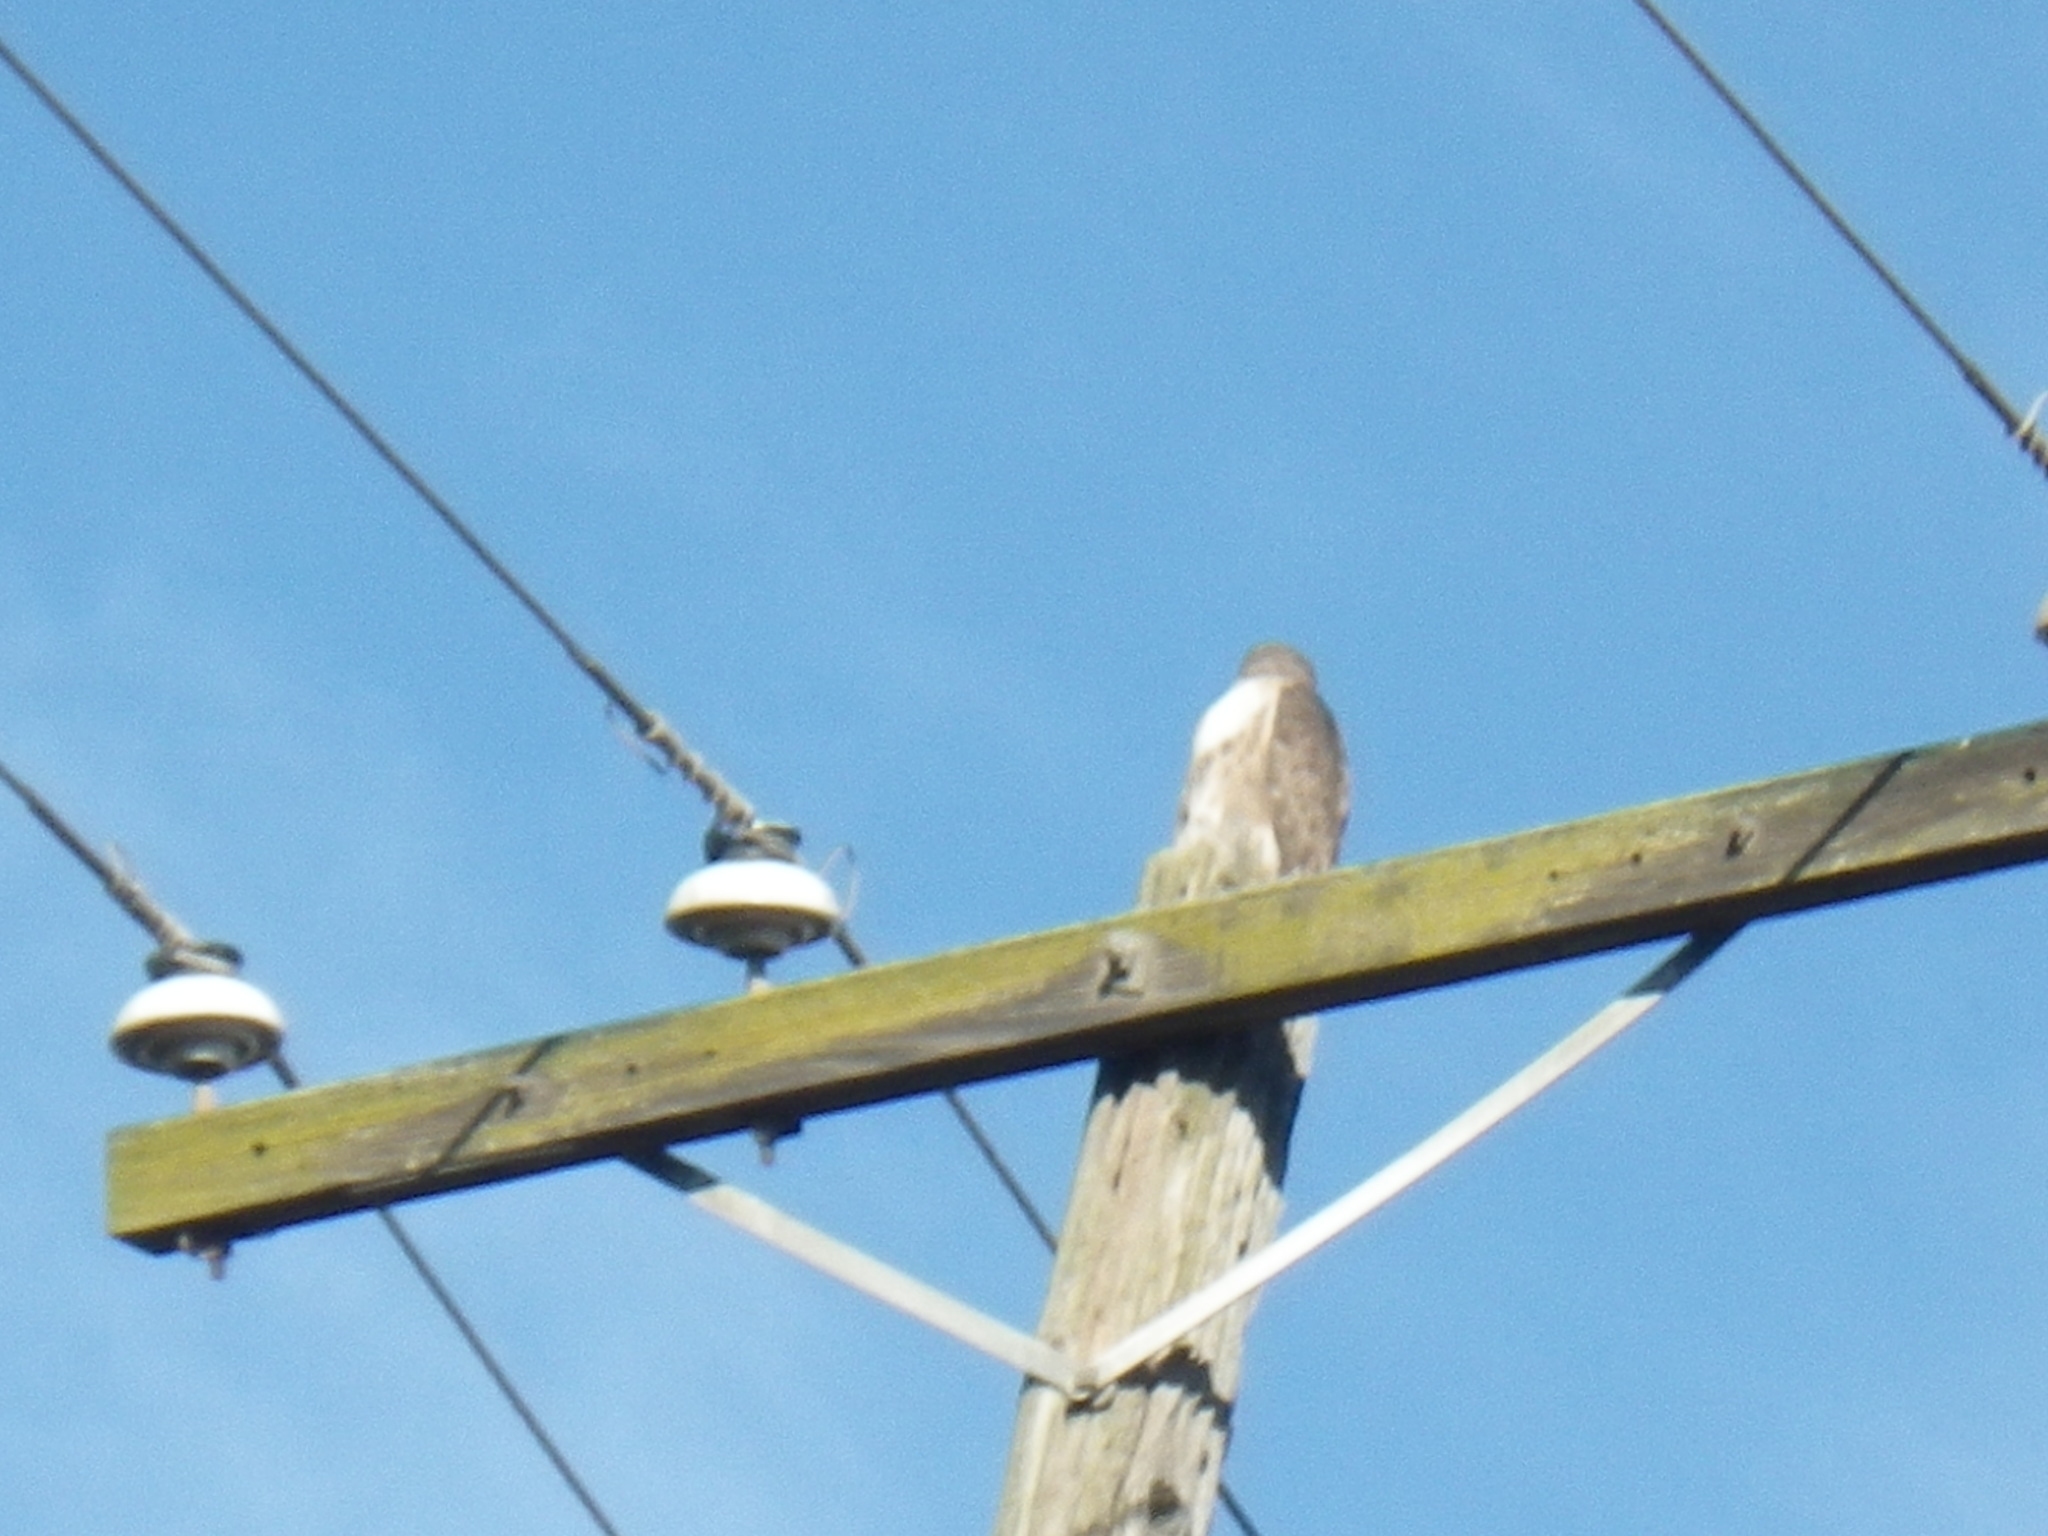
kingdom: Animalia
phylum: Chordata
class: Aves
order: Accipitriformes
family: Accipitridae
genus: Buteo
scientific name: Buteo jamaicensis
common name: Red-tailed hawk
